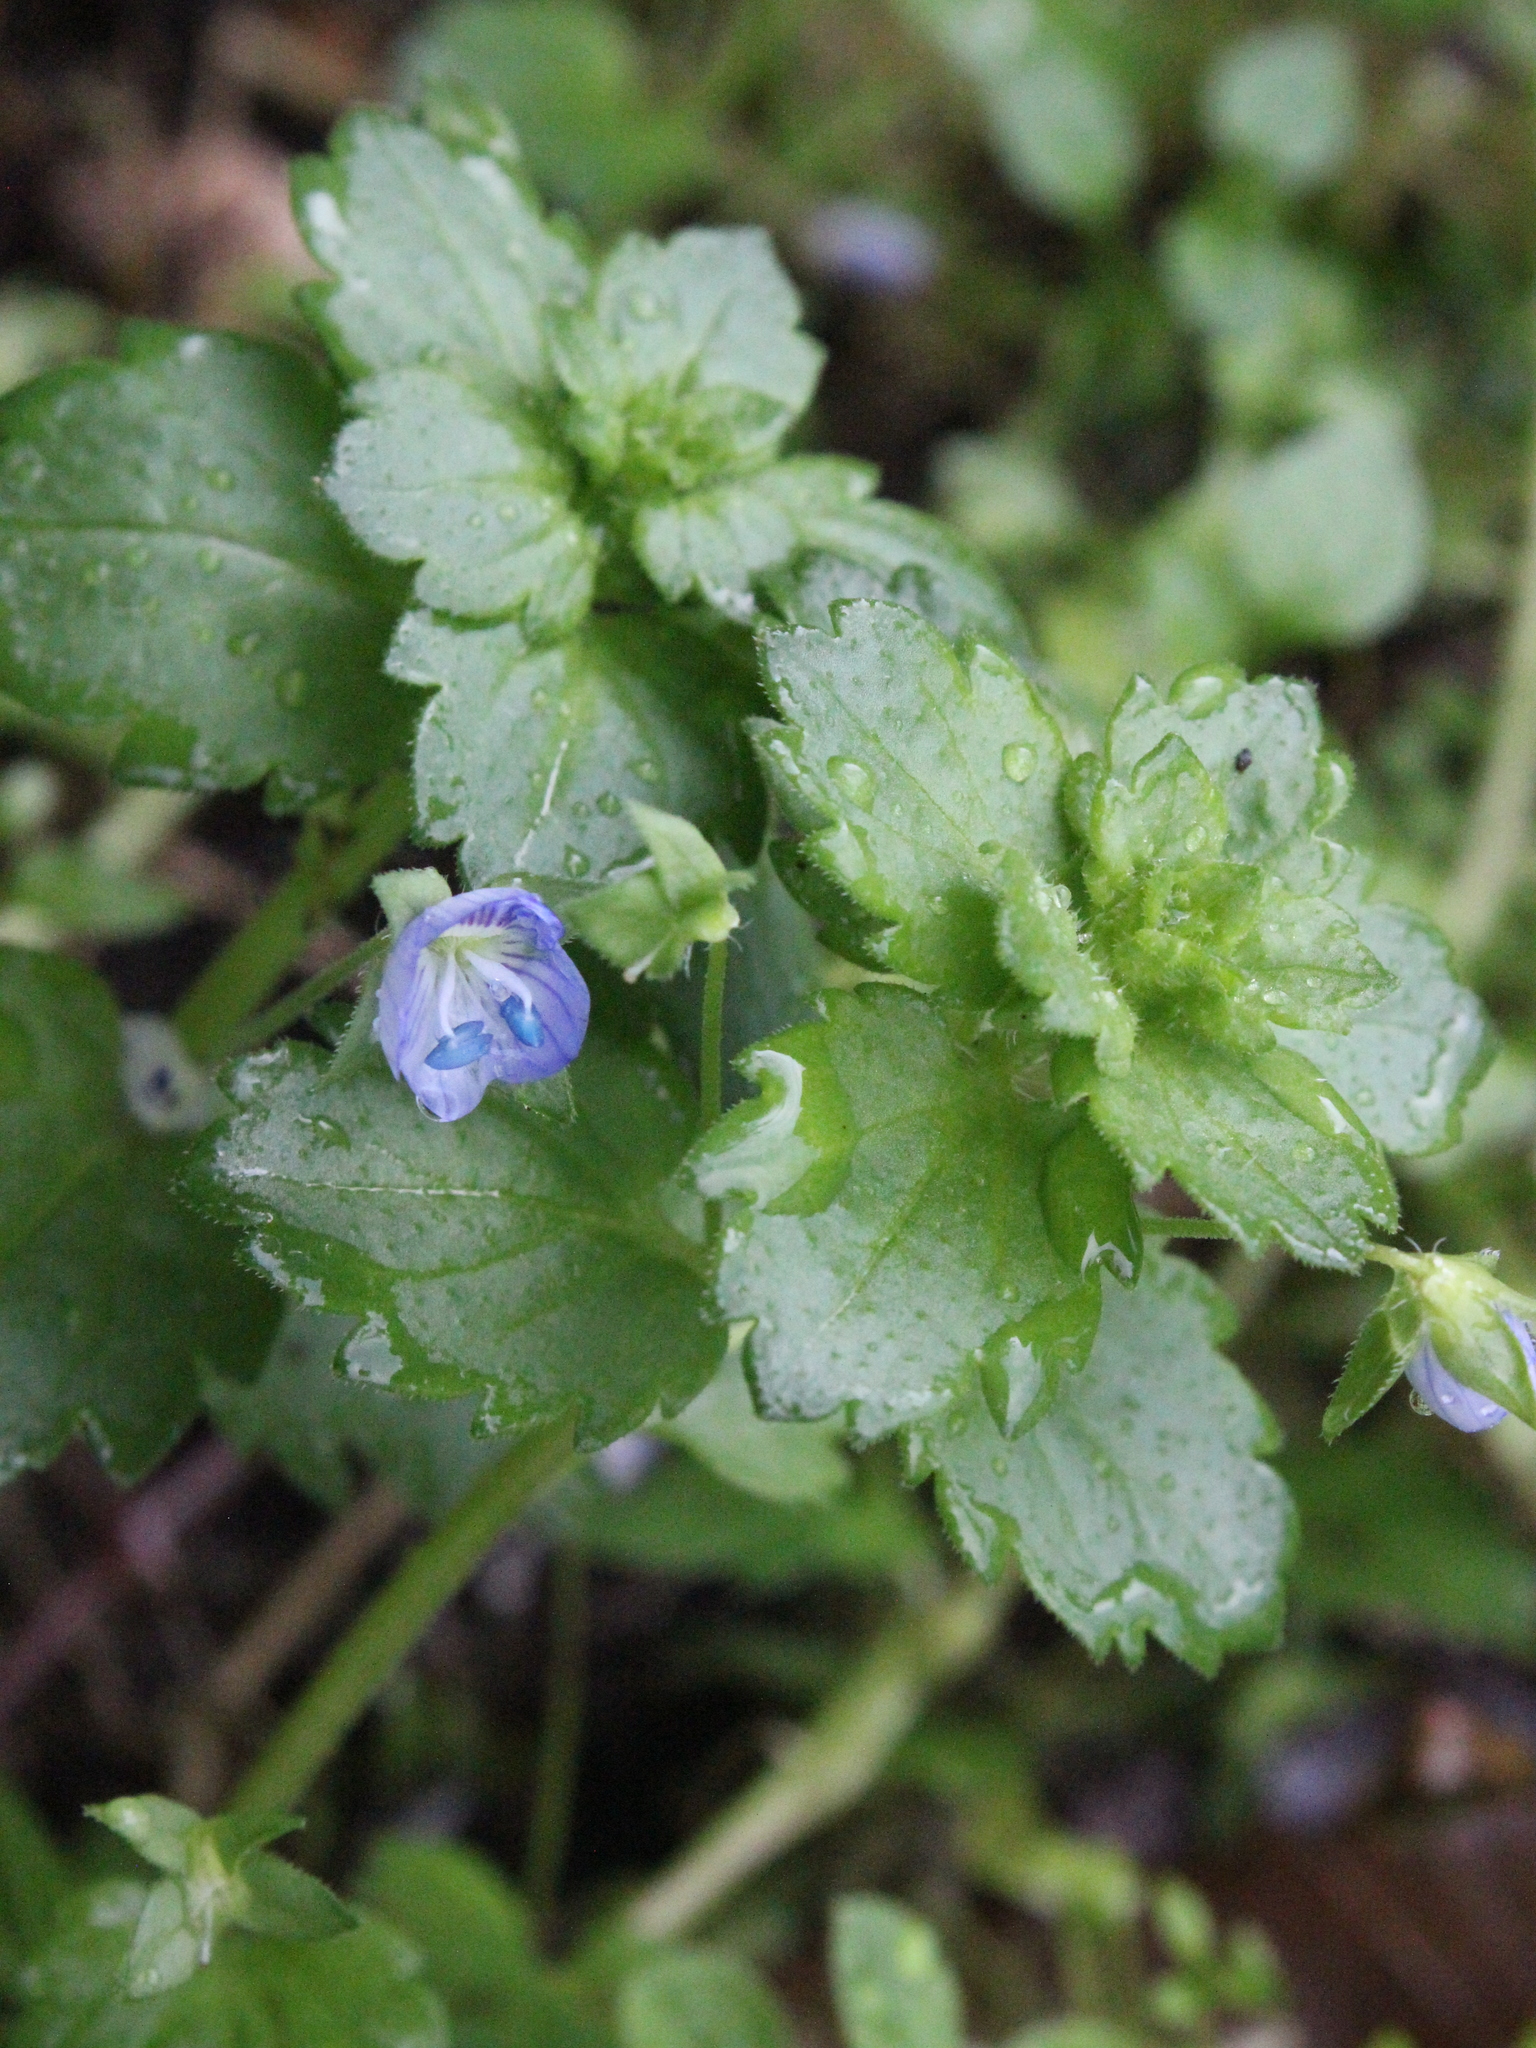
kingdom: Plantae
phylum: Tracheophyta
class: Magnoliopsida
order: Lamiales
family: Plantaginaceae
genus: Veronica
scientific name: Veronica persica
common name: Common field-speedwell
